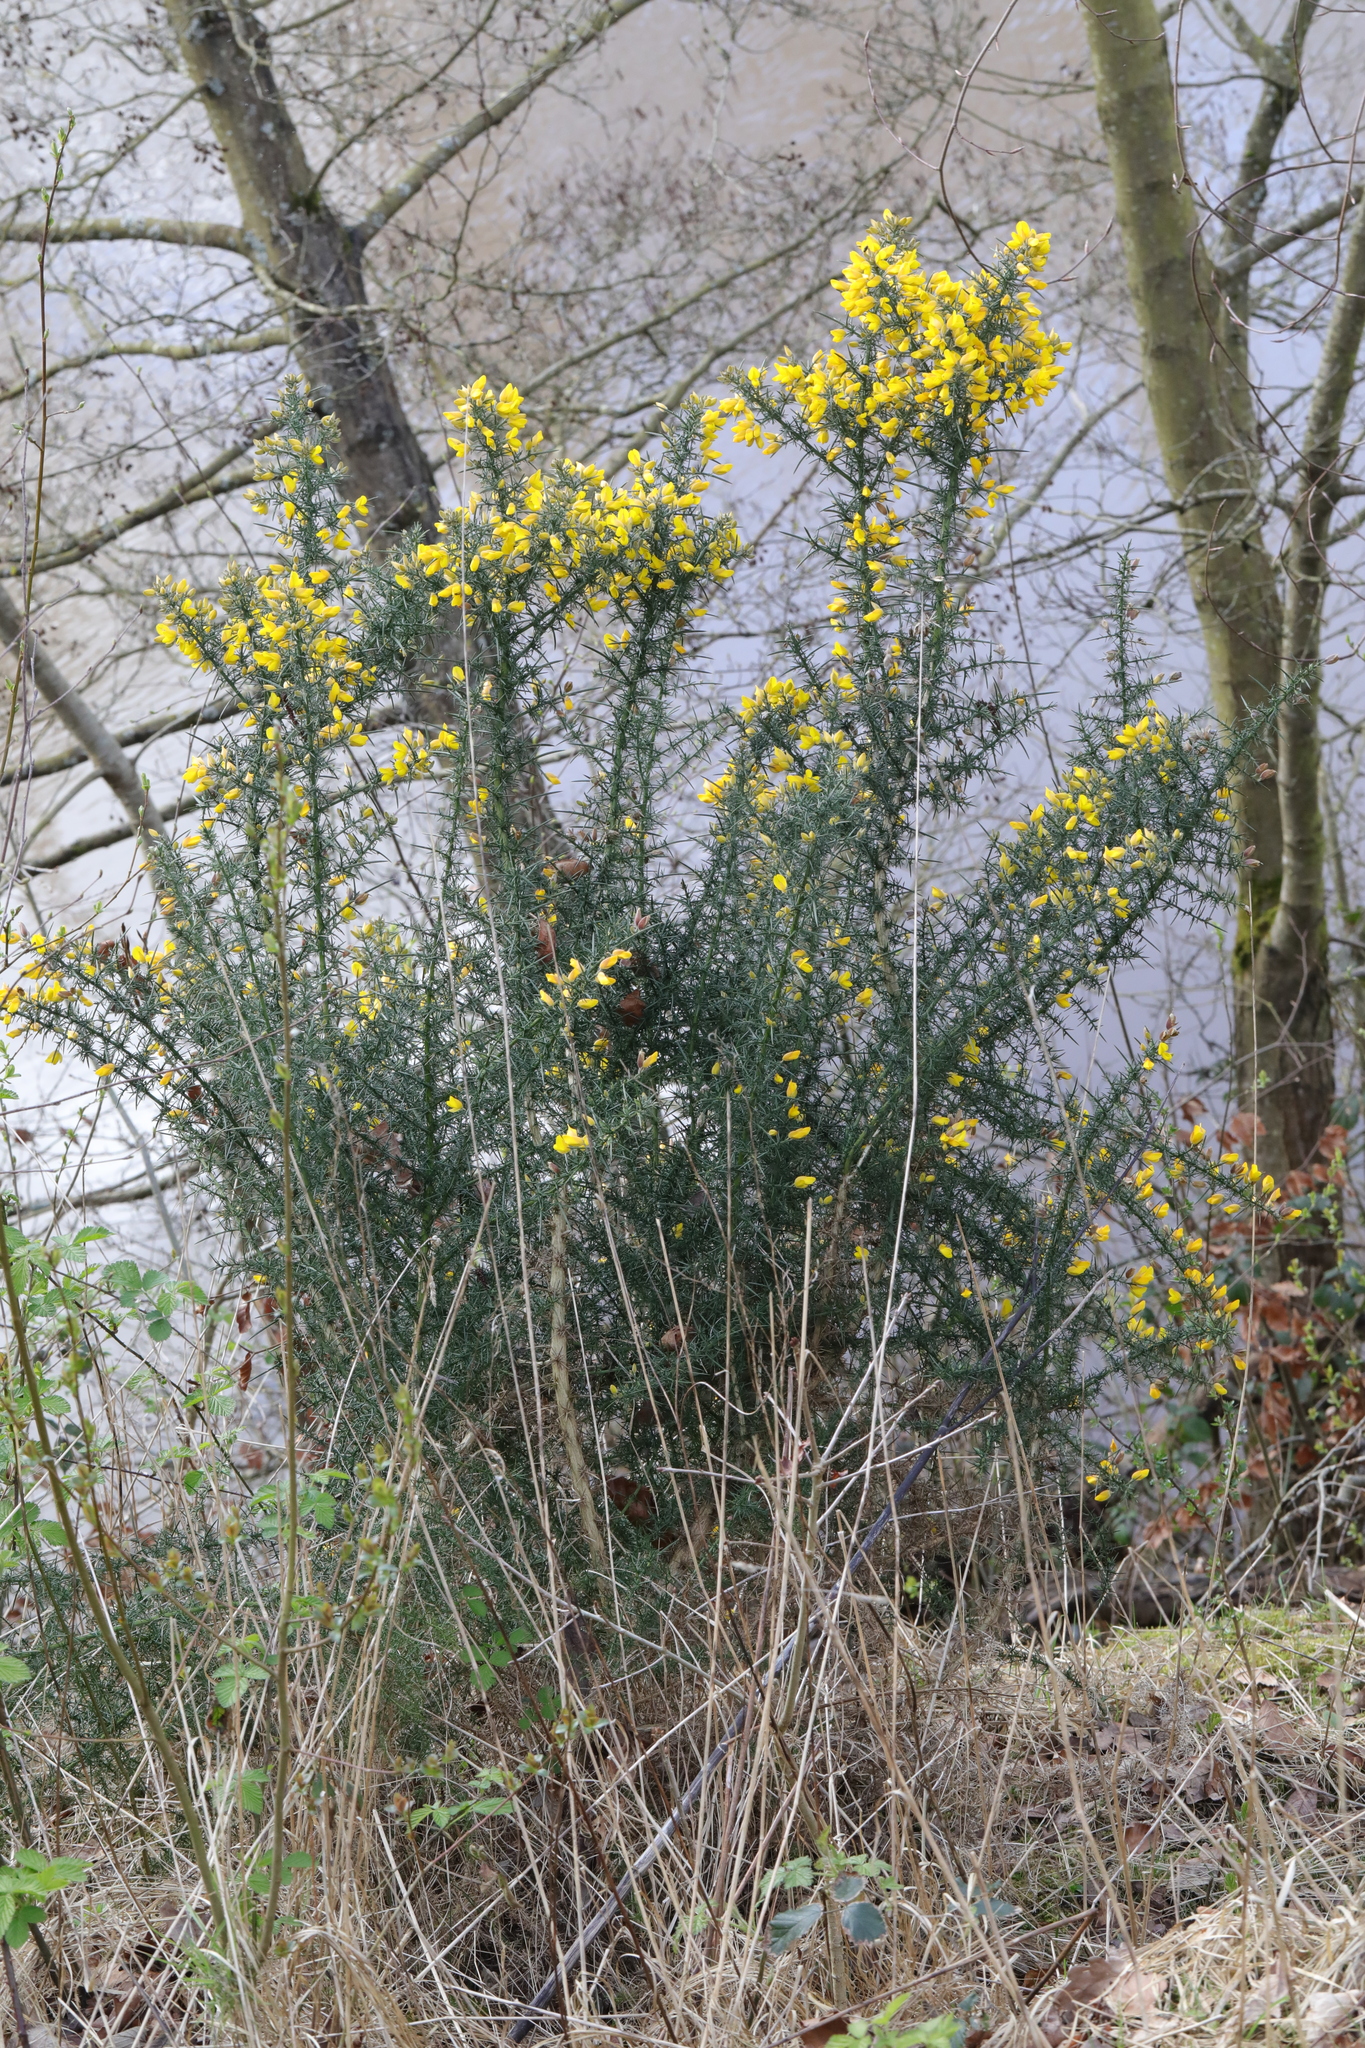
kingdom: Plantae
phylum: Tracheophyta
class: Magnoliopsida
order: Fabales
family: Fabaceae
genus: Ulex
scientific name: Ulex europaeus
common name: Common gorse
